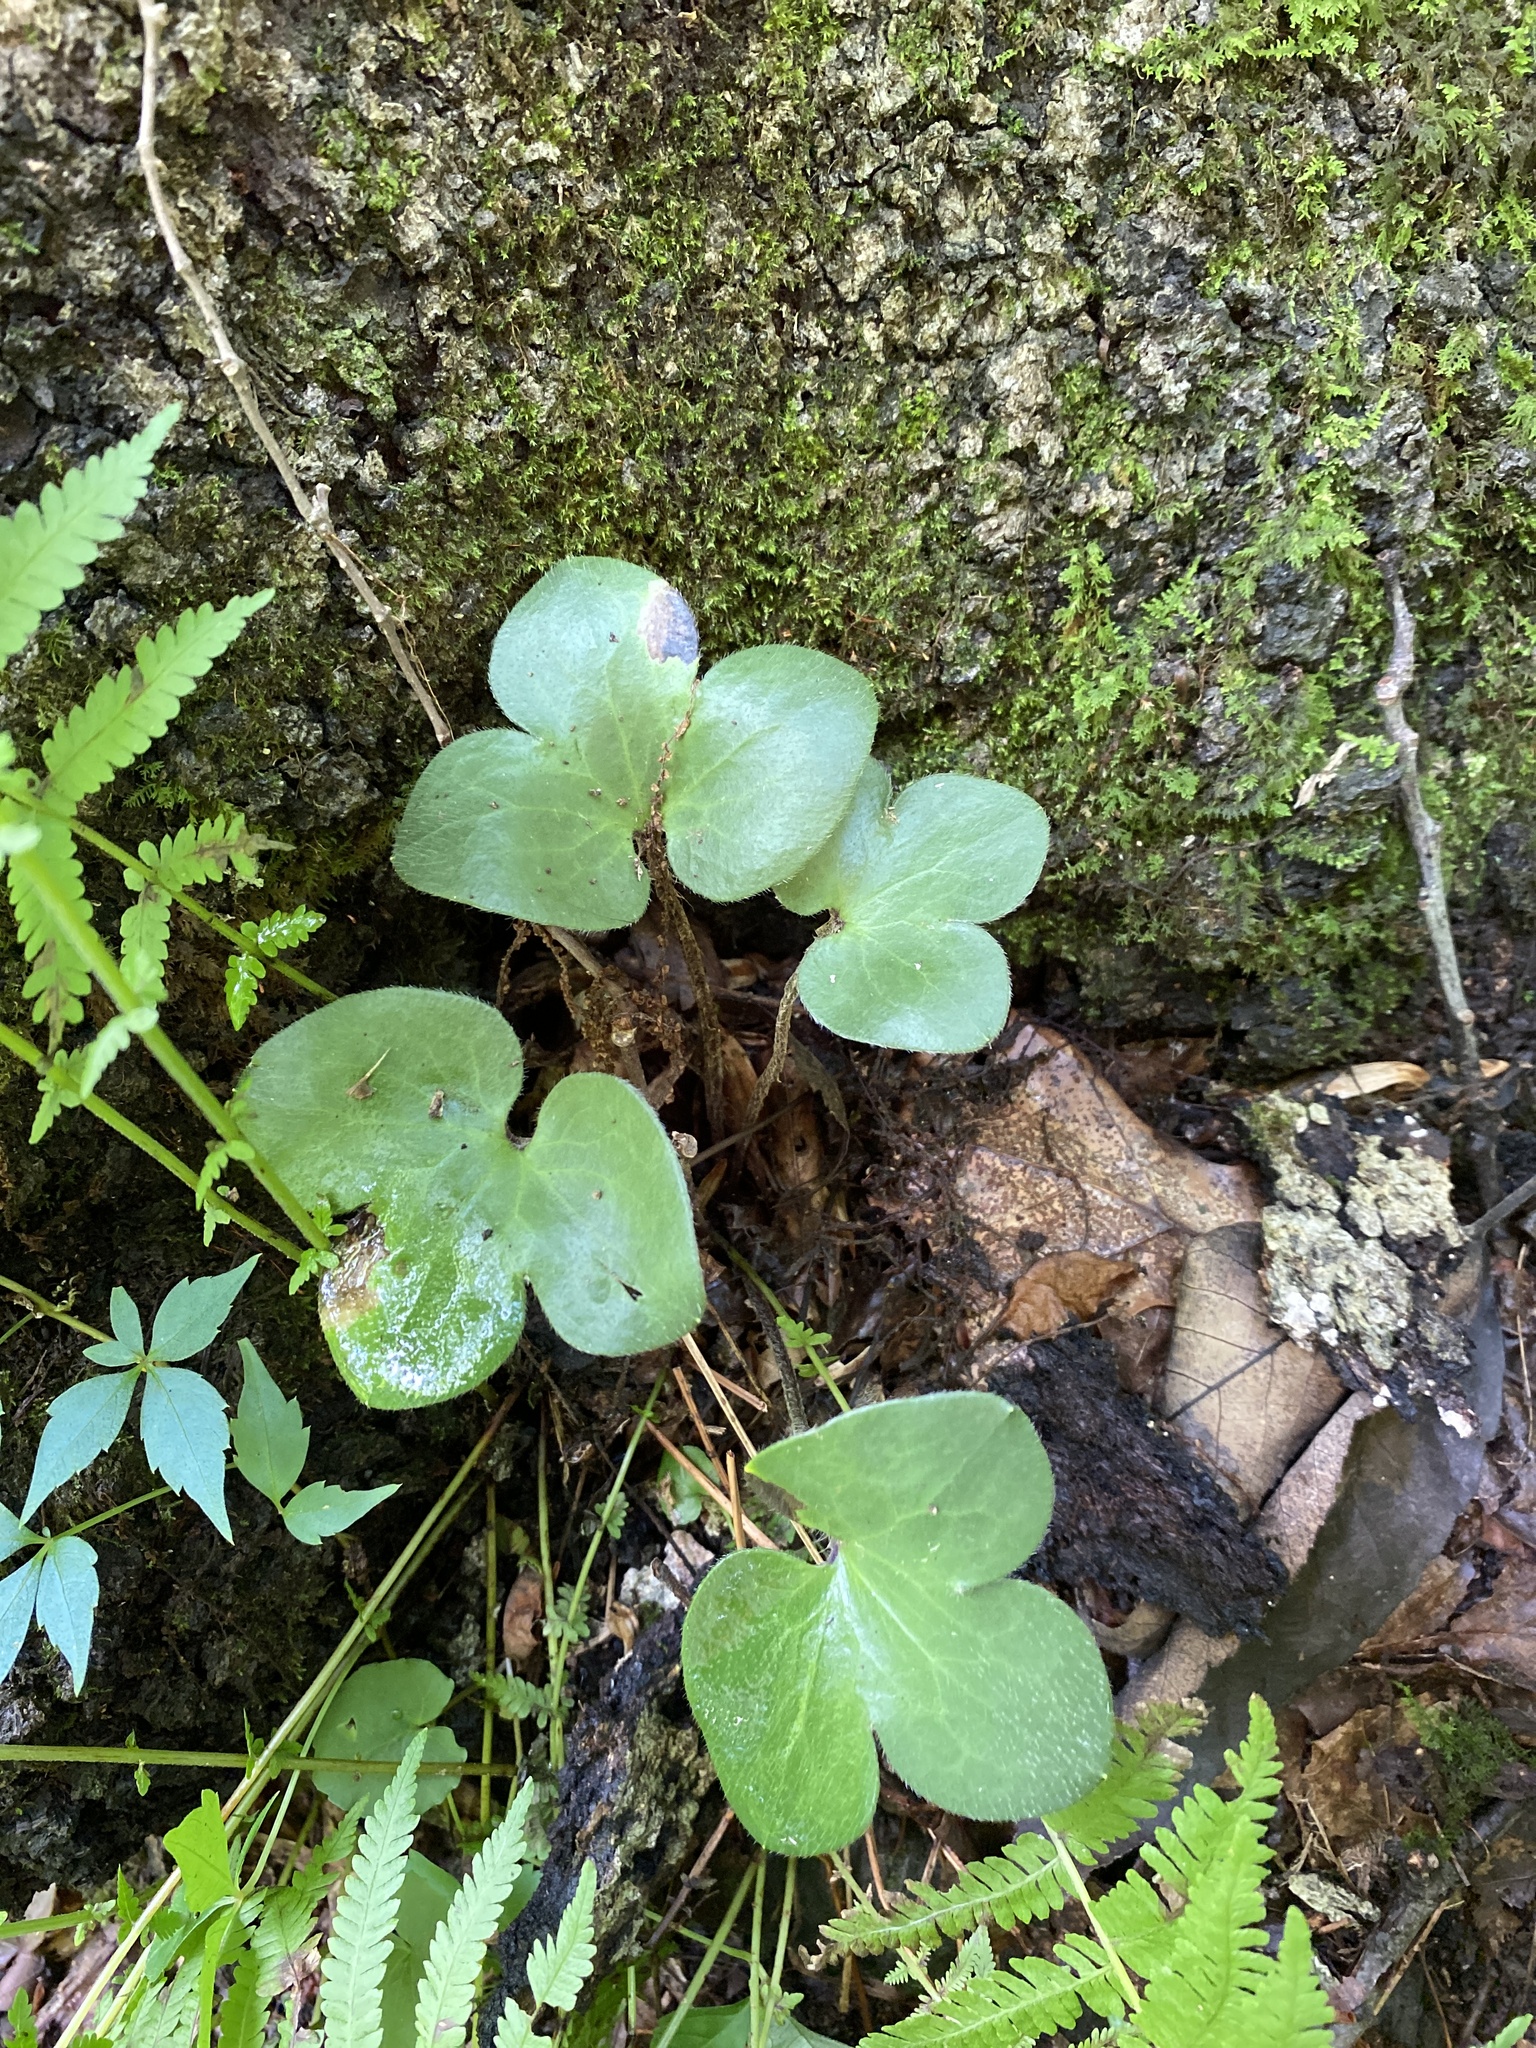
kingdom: Plantae
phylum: Tracheophyta
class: Magnoliopsida
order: Ranunculales
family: Ranunculaceae
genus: Hepatica
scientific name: Hepatica americana
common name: American hepatica
